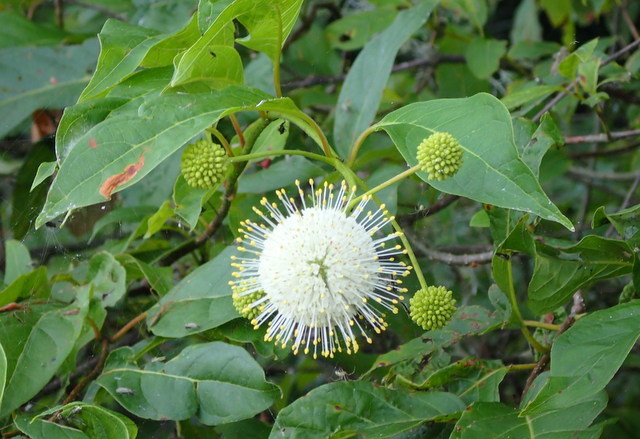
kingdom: Plantae
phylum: Tracheophyta
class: Magnoliopsida
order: Gentianales
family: Rubiaceae
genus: Cephalanthus
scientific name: Cephalanthus occidentalis
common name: Button-willow
